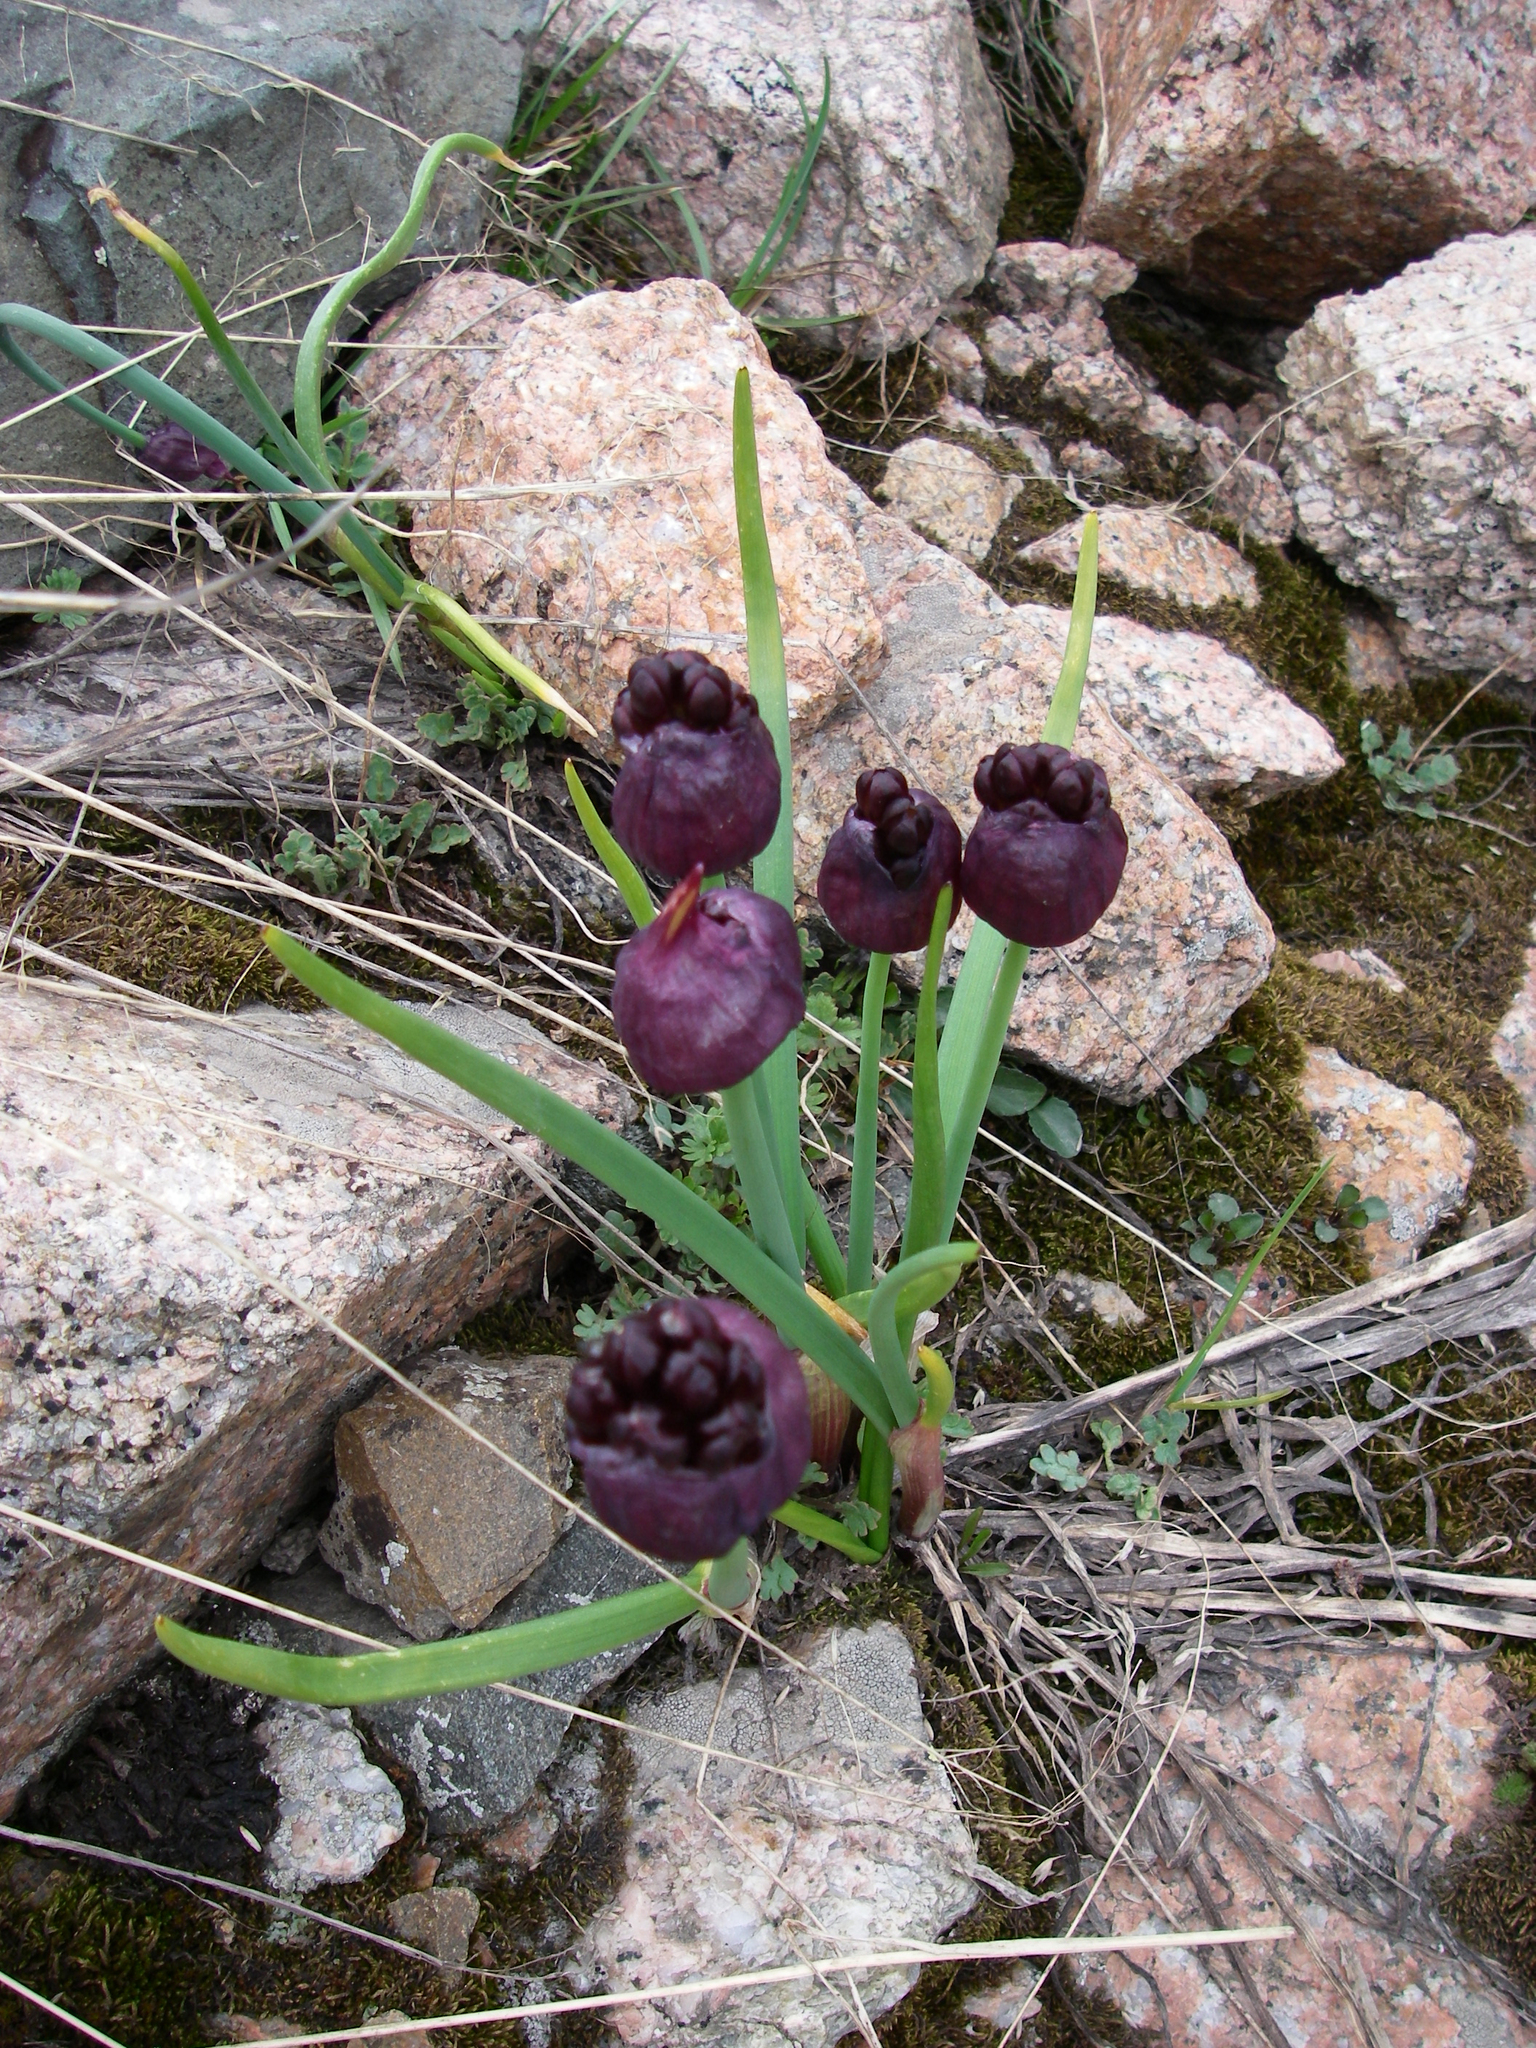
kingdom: Plantae
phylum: Tracheophyta
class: Liliopsida
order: Asparagales
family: Amaryllidaceae
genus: Allium
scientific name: Allium atrosanguineum
